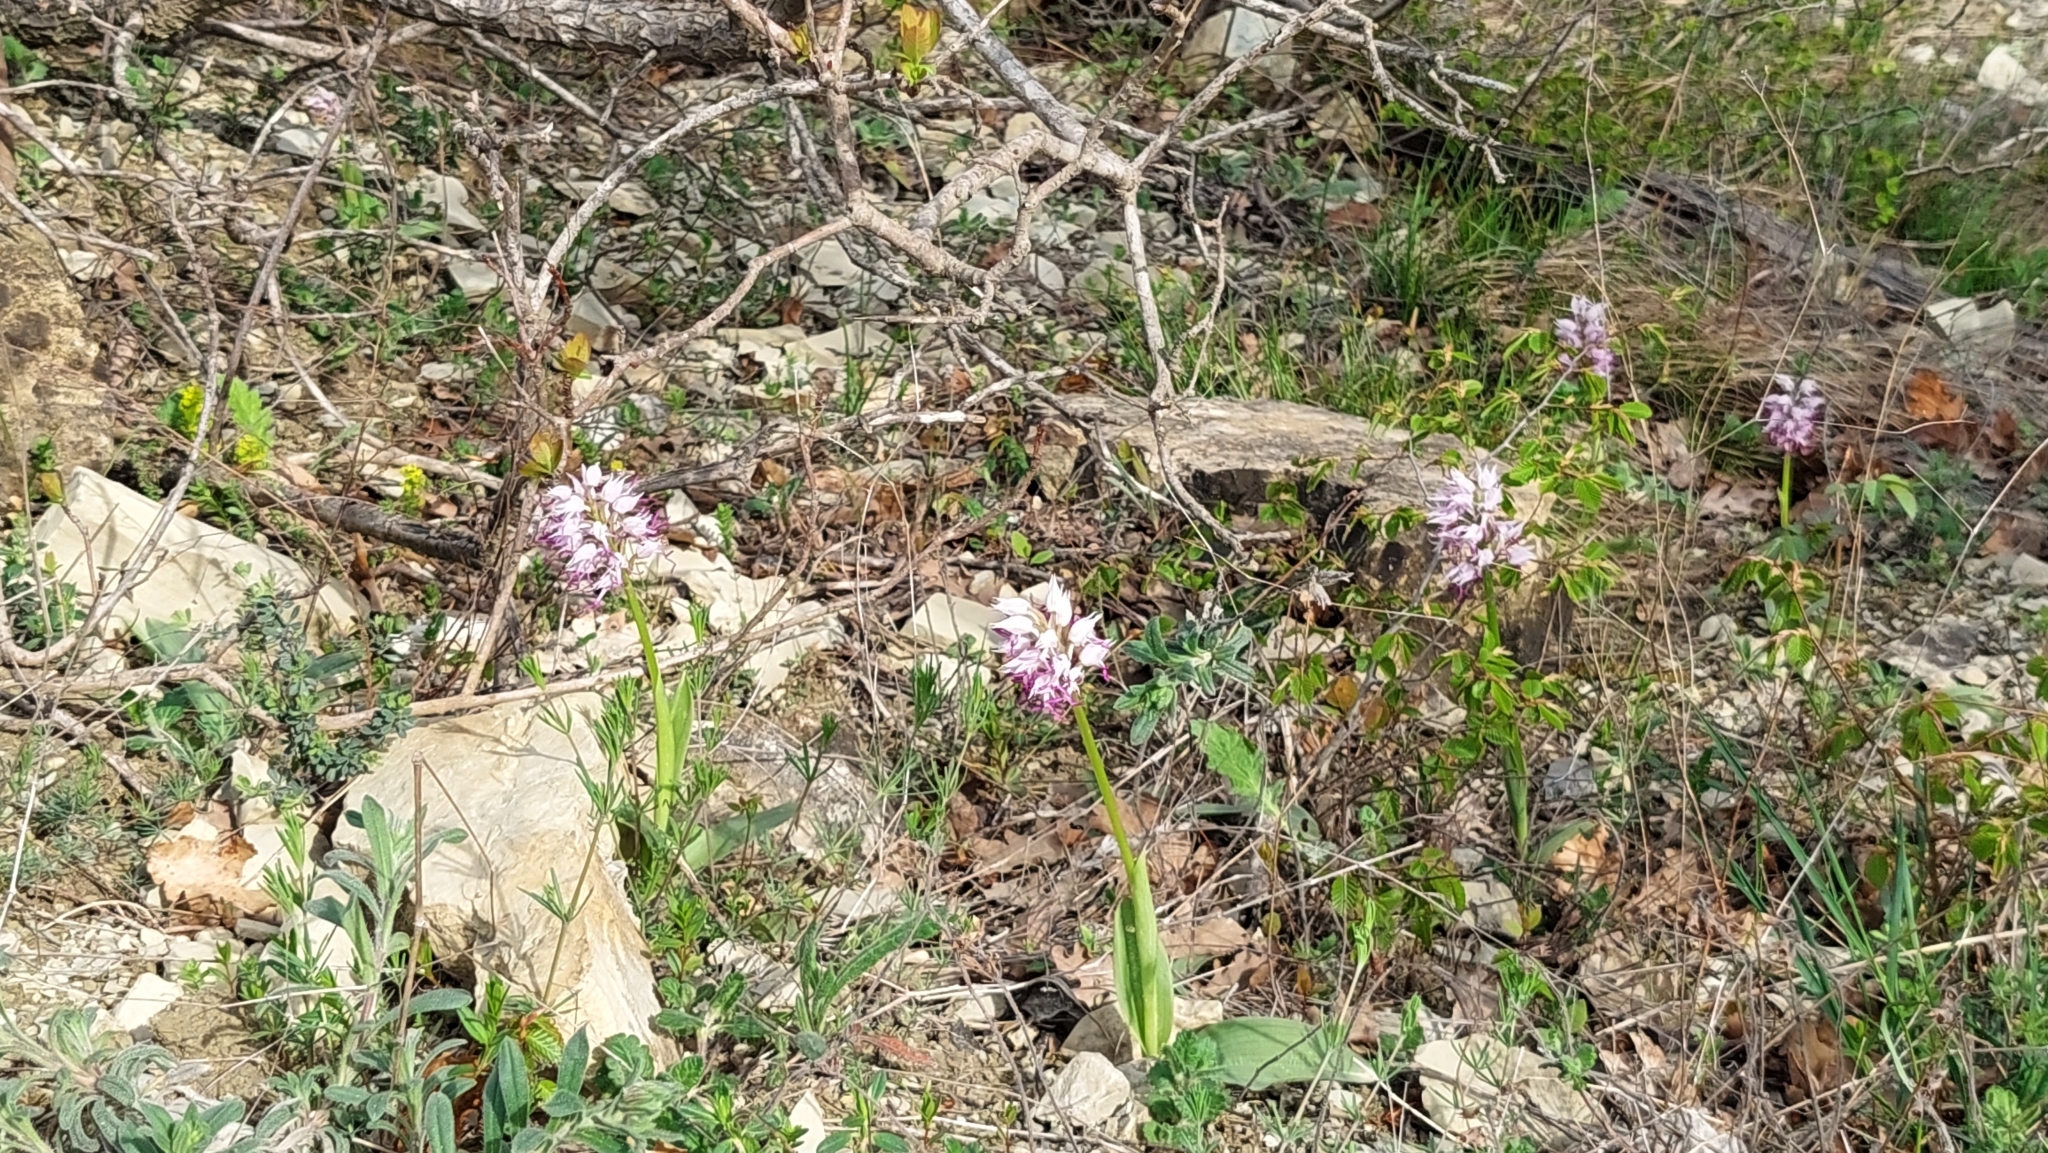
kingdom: Plantae
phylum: Tracheophyta
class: Liliopsida
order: Asparagales
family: Orchidaceae
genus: Orchis
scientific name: Orchis simia
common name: Monkey orchid
